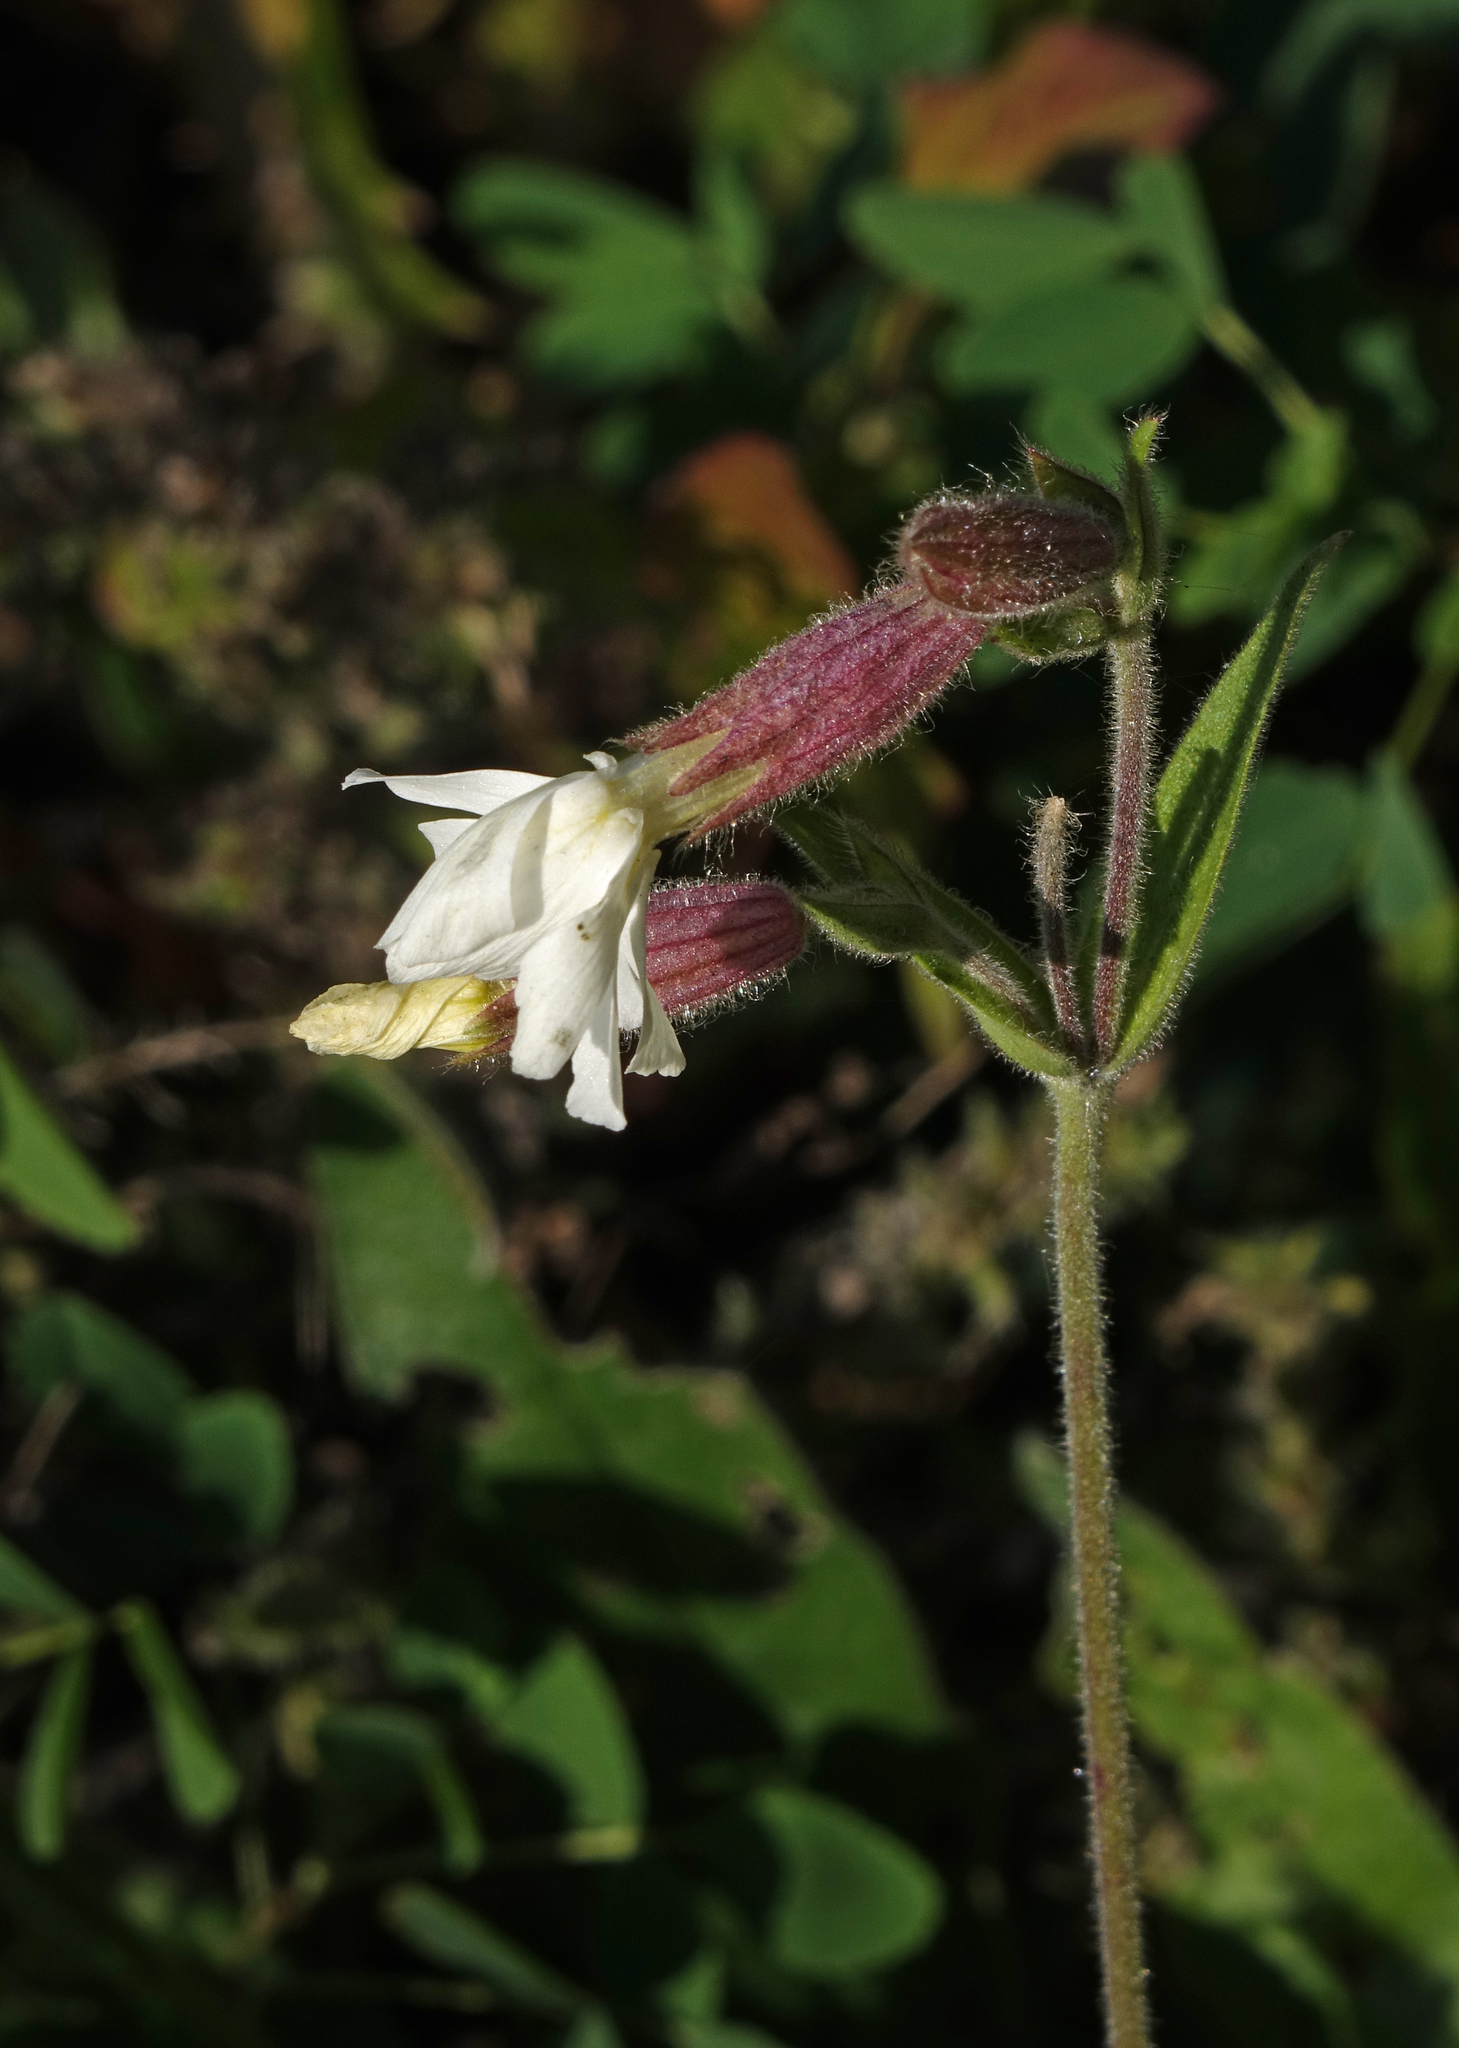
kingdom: Plantae
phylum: Tracheophyta
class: Magnoliopsida
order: Caryophyllales
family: Caryophyllaceae
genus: Silene
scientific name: Silene latifolia
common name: White campion
